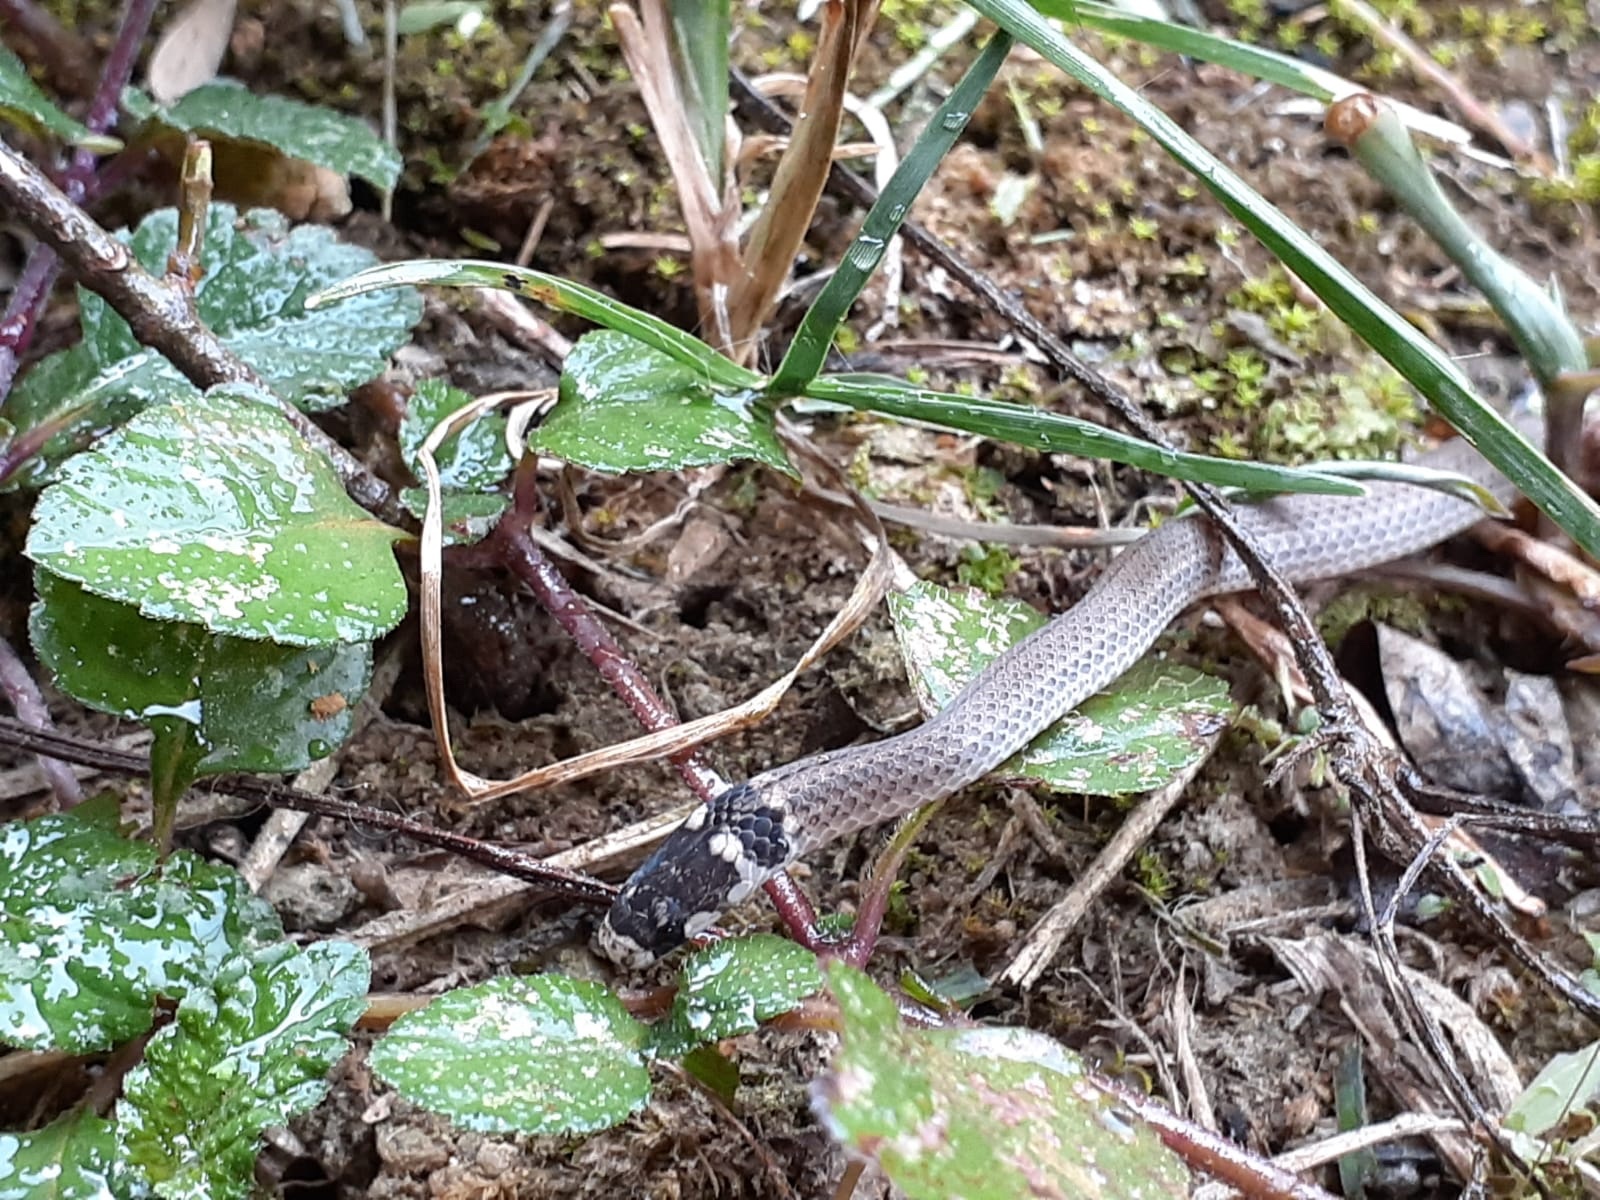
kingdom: Animalia
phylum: Chordata
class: Squamata
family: Colubridae
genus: Tantilla
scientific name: Tantilla melanocephala
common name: Black-headed snake
